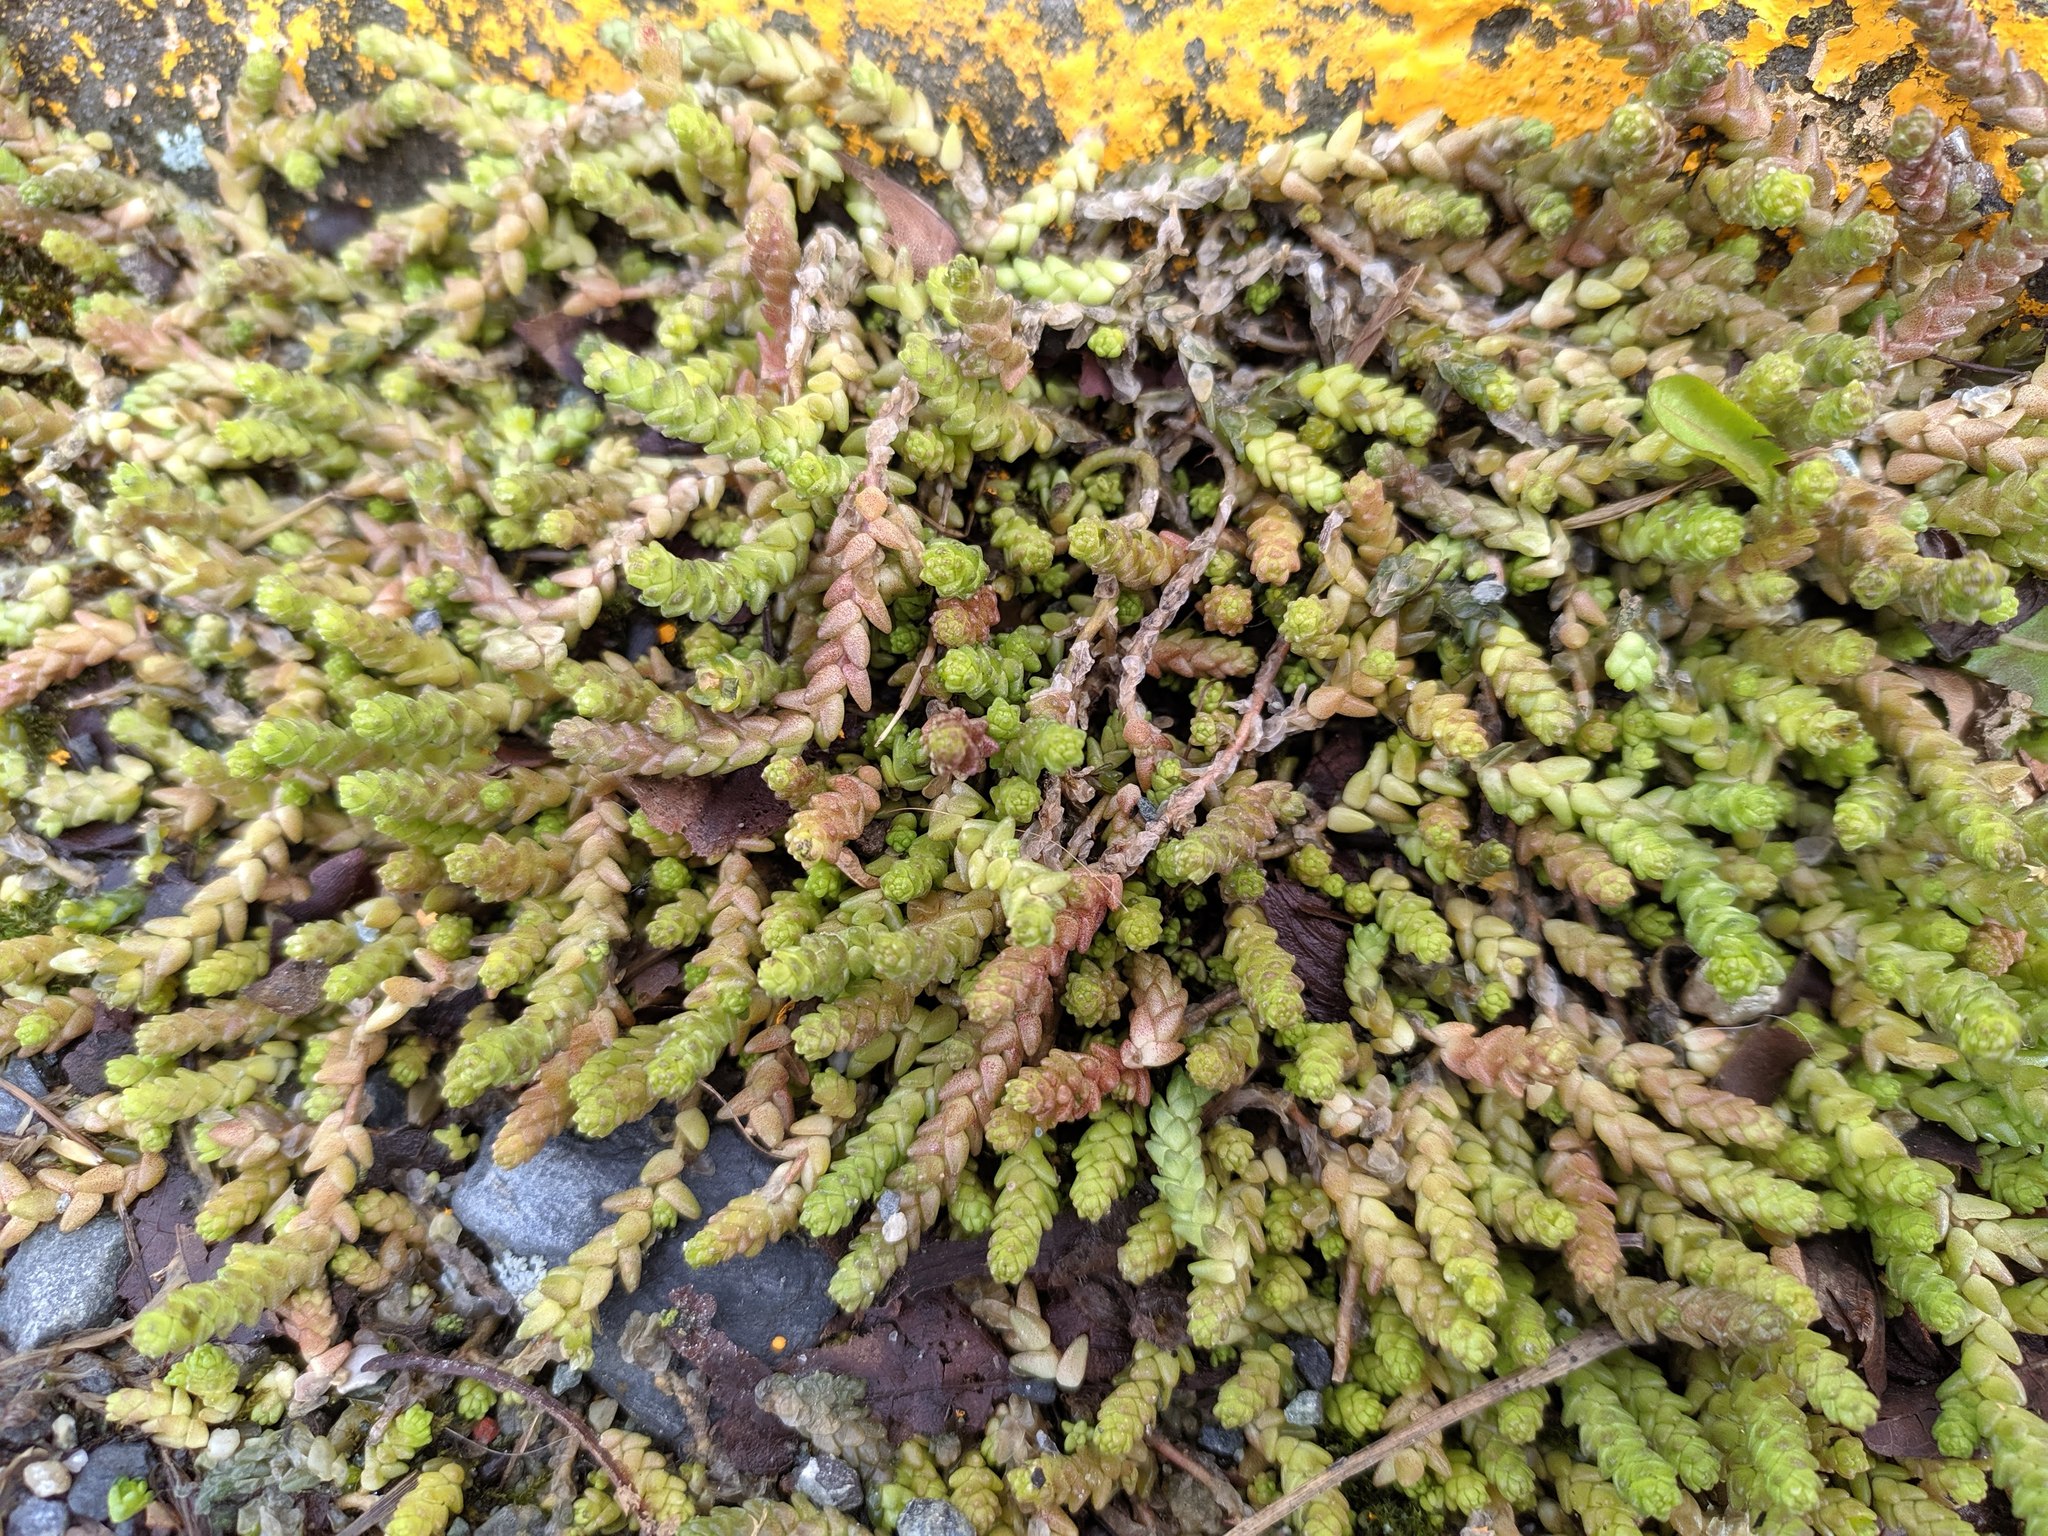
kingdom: Plantae
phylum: Tracheophyta
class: Magnoliopsida
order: Saxifragales
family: Crassulaceae
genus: Sedum
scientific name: Sedum acre
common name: Biting stonecrop
